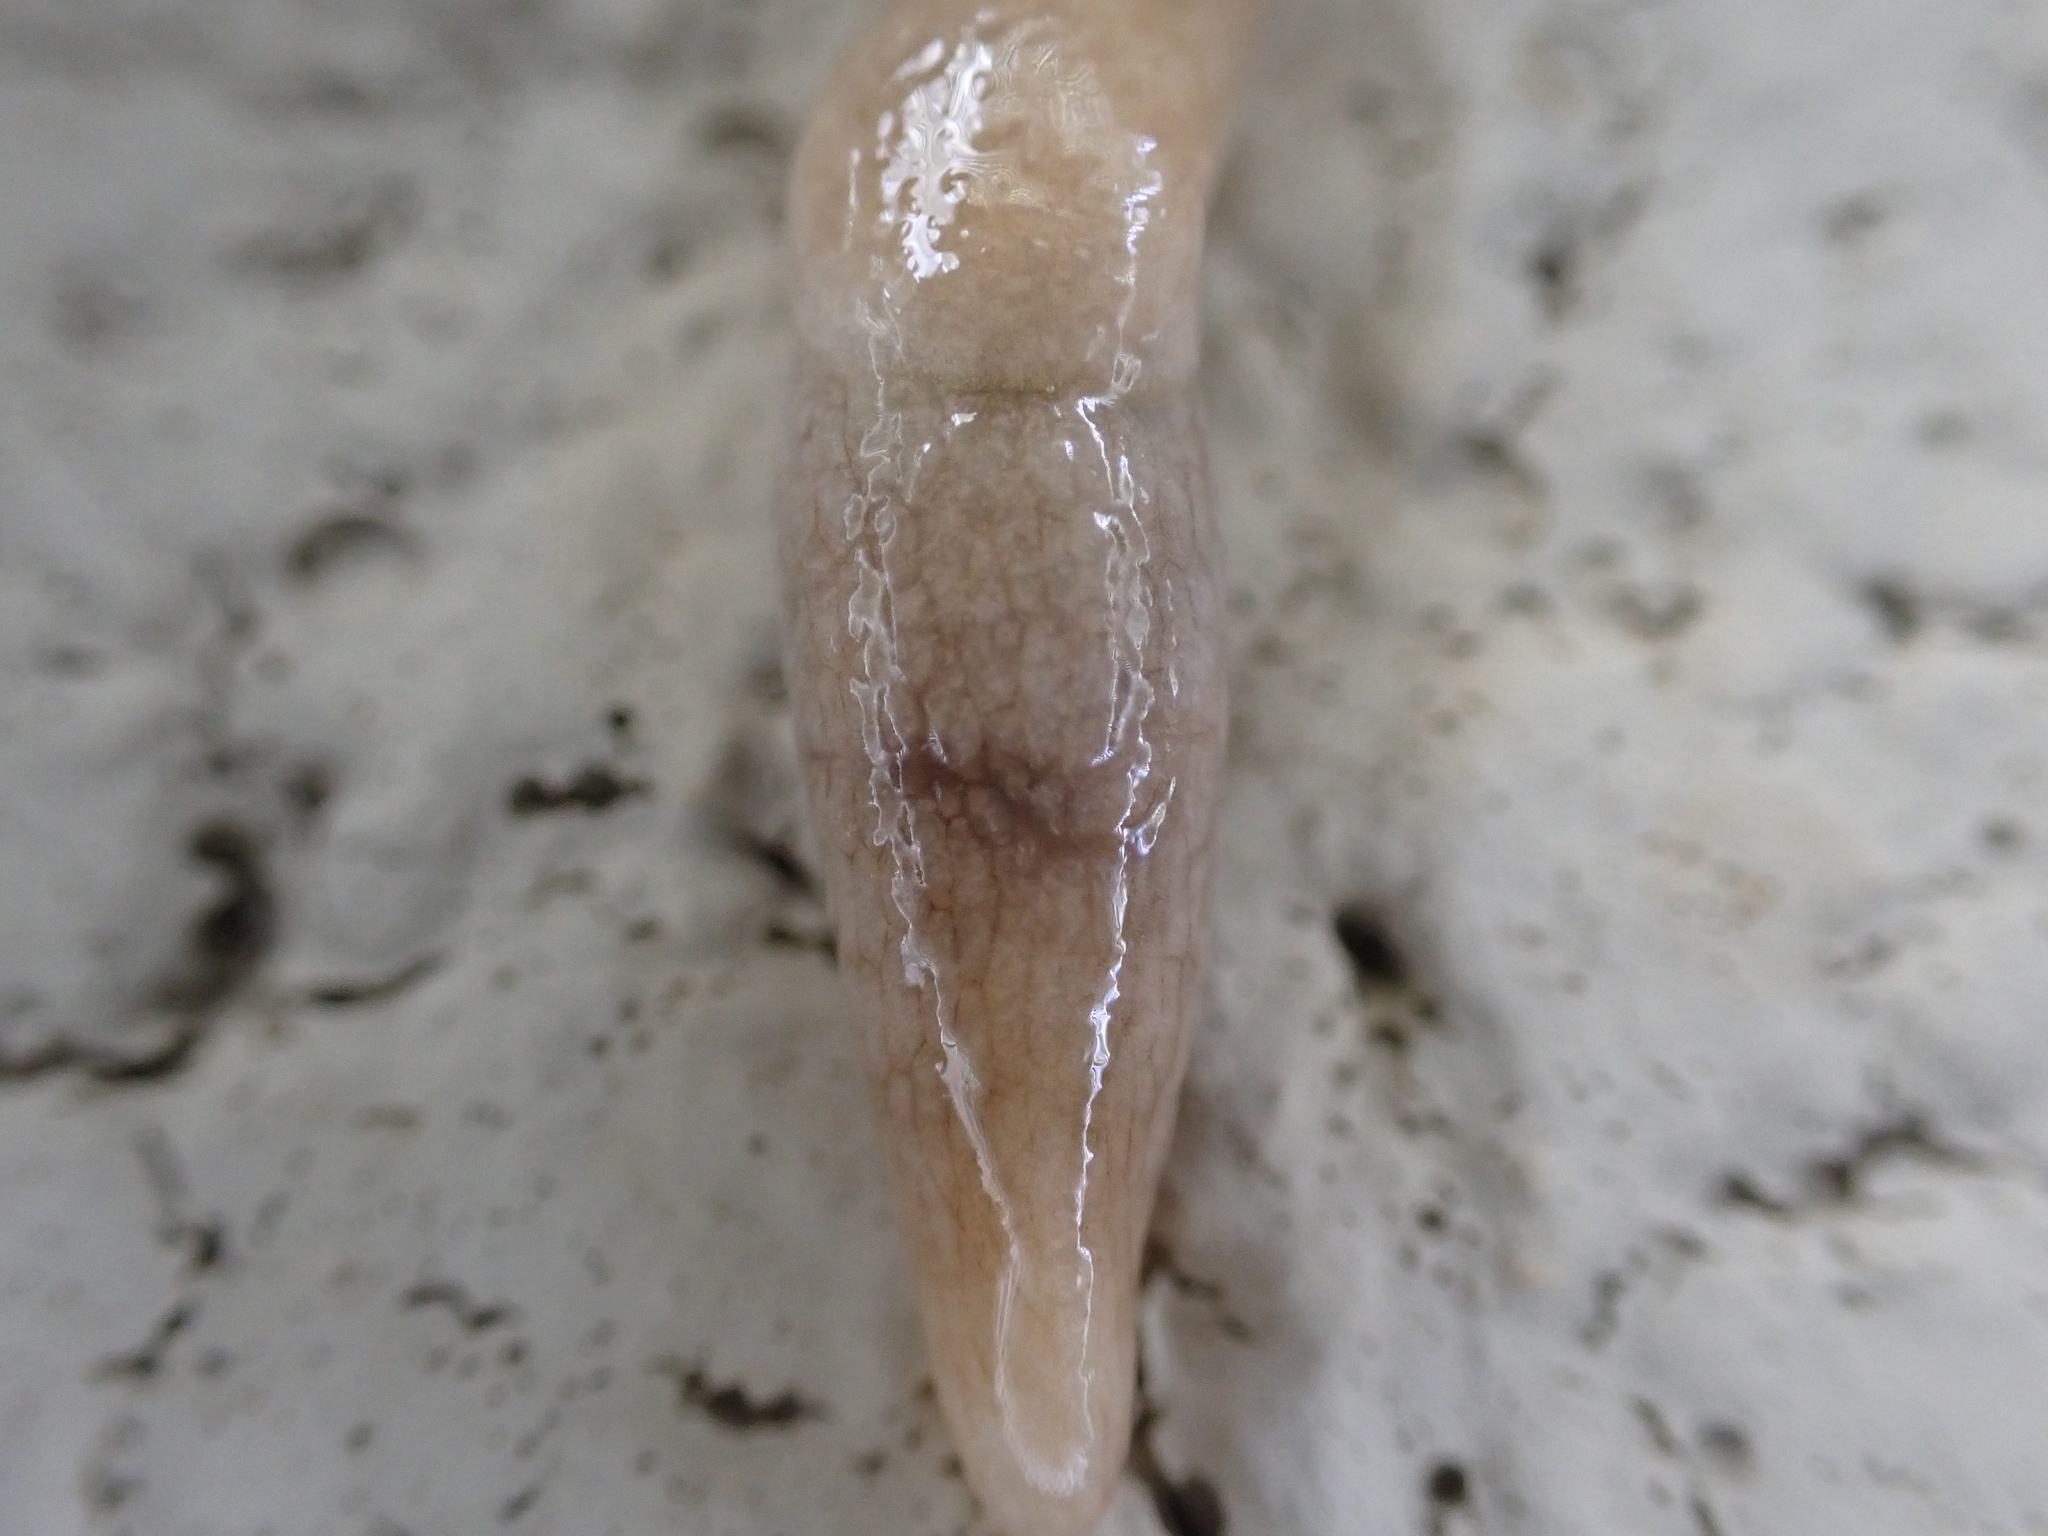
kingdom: Animalia
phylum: Mollusca
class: Gastropoda
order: Stylommatophora
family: Agriolimacidae
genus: Deroceras
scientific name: Deroceras reticulatum
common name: Gray field slug
